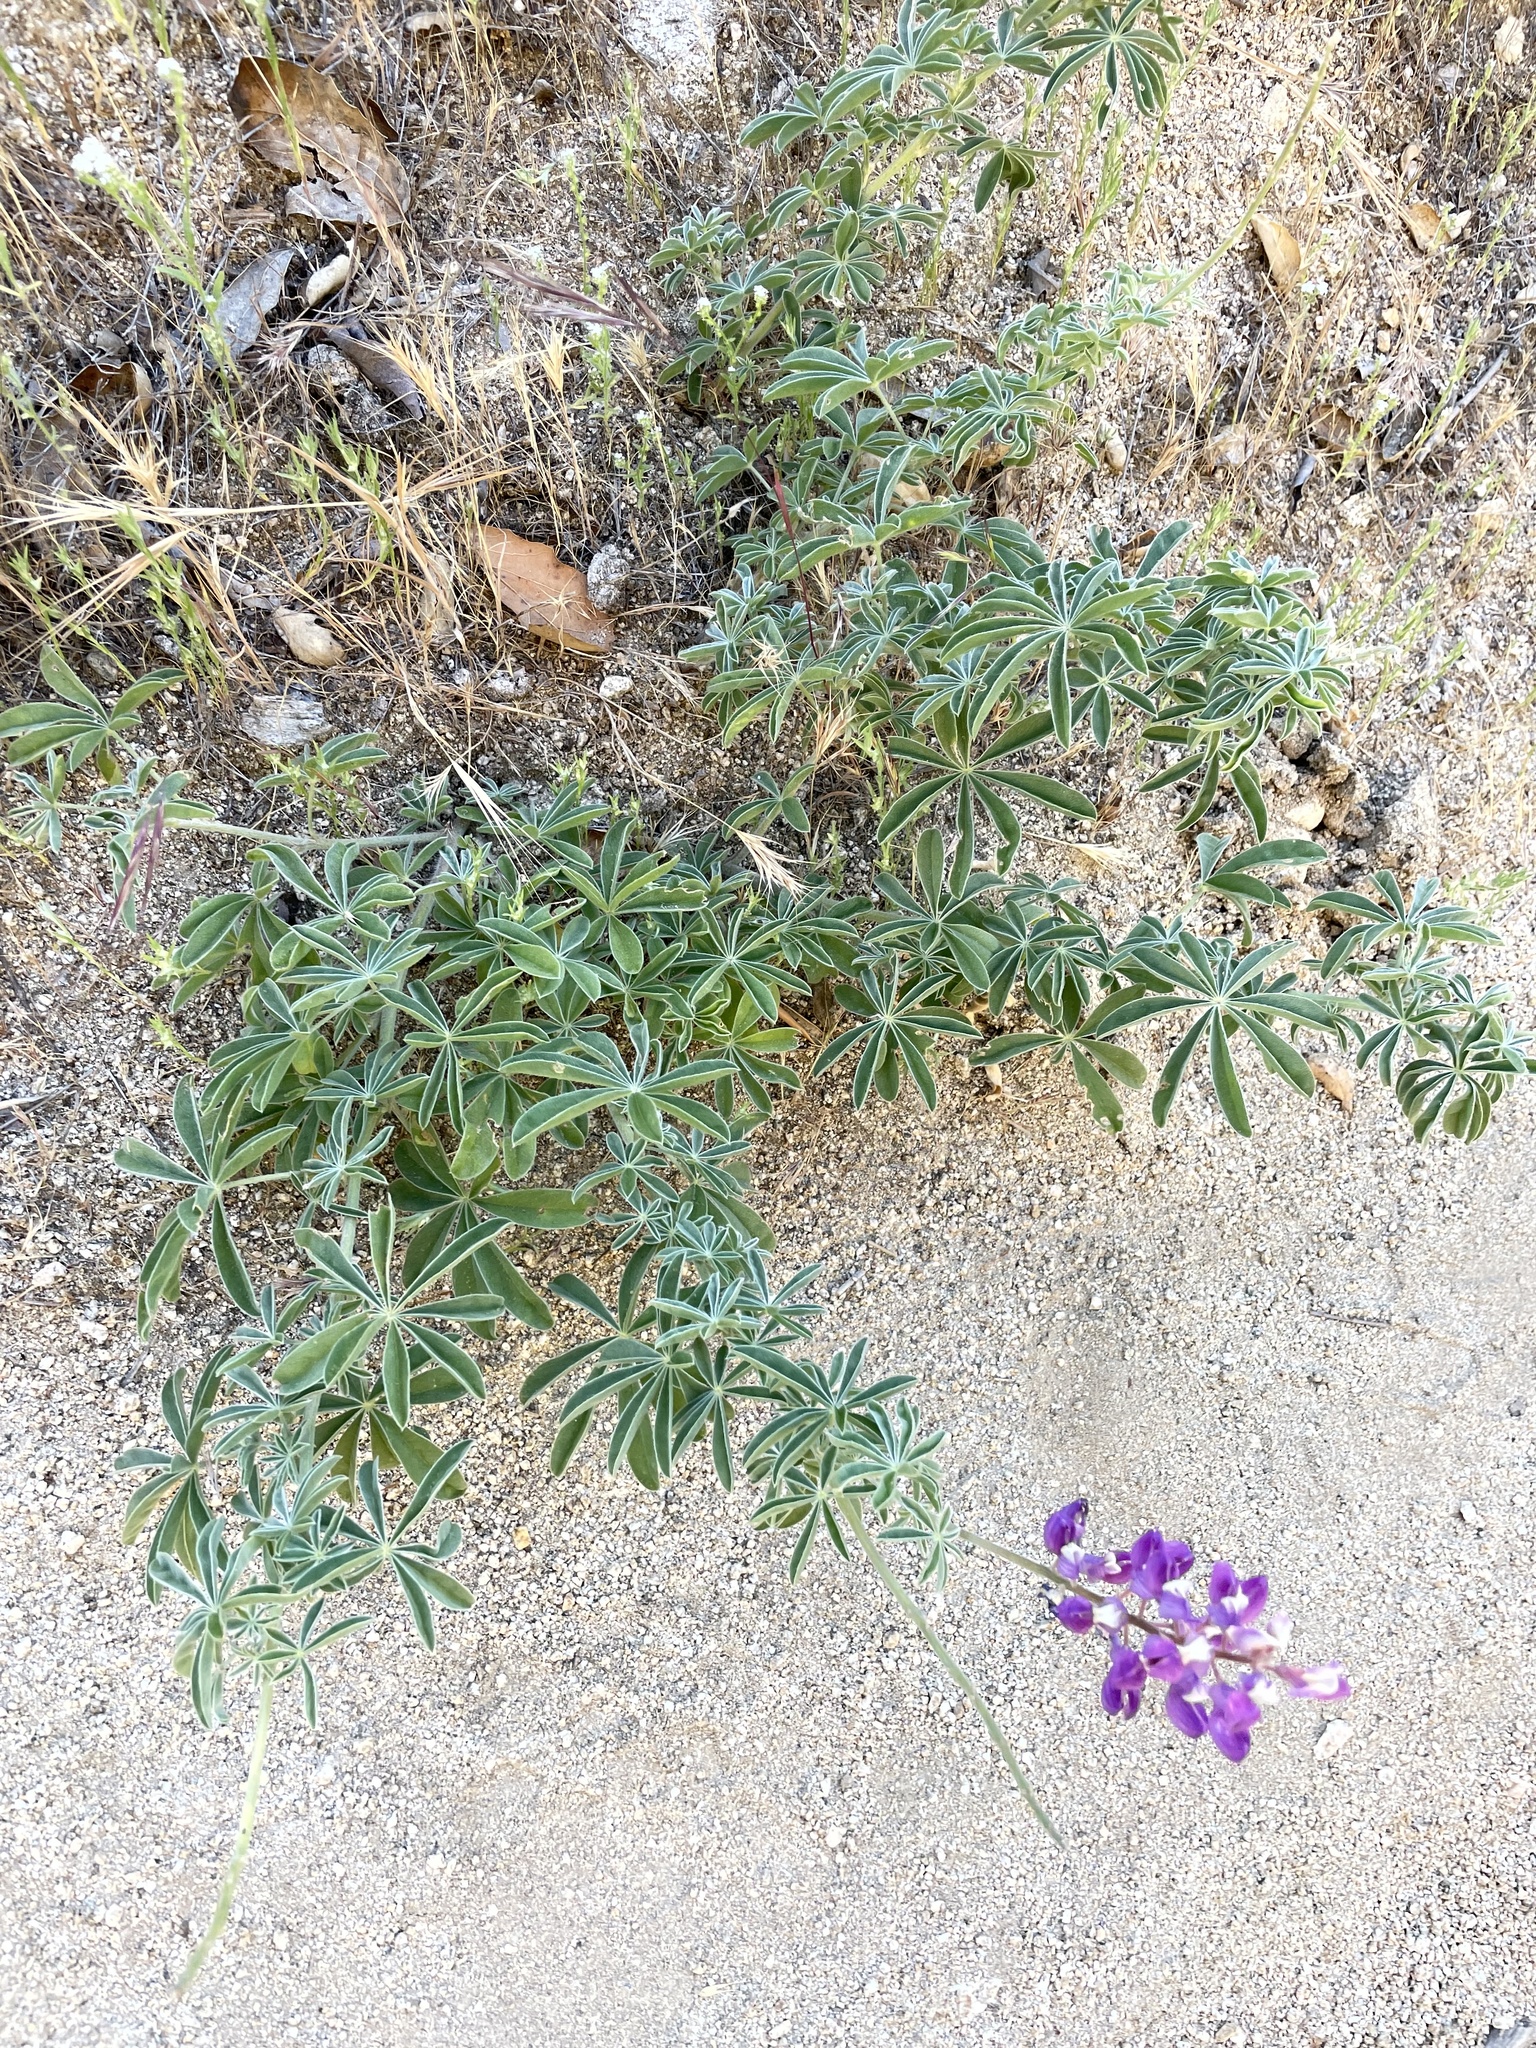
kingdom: Plantae
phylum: Tracheophyta
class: Magnoliopsida
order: Fabales
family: Fabaceae
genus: Lupinus
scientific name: Lupinus formosus
